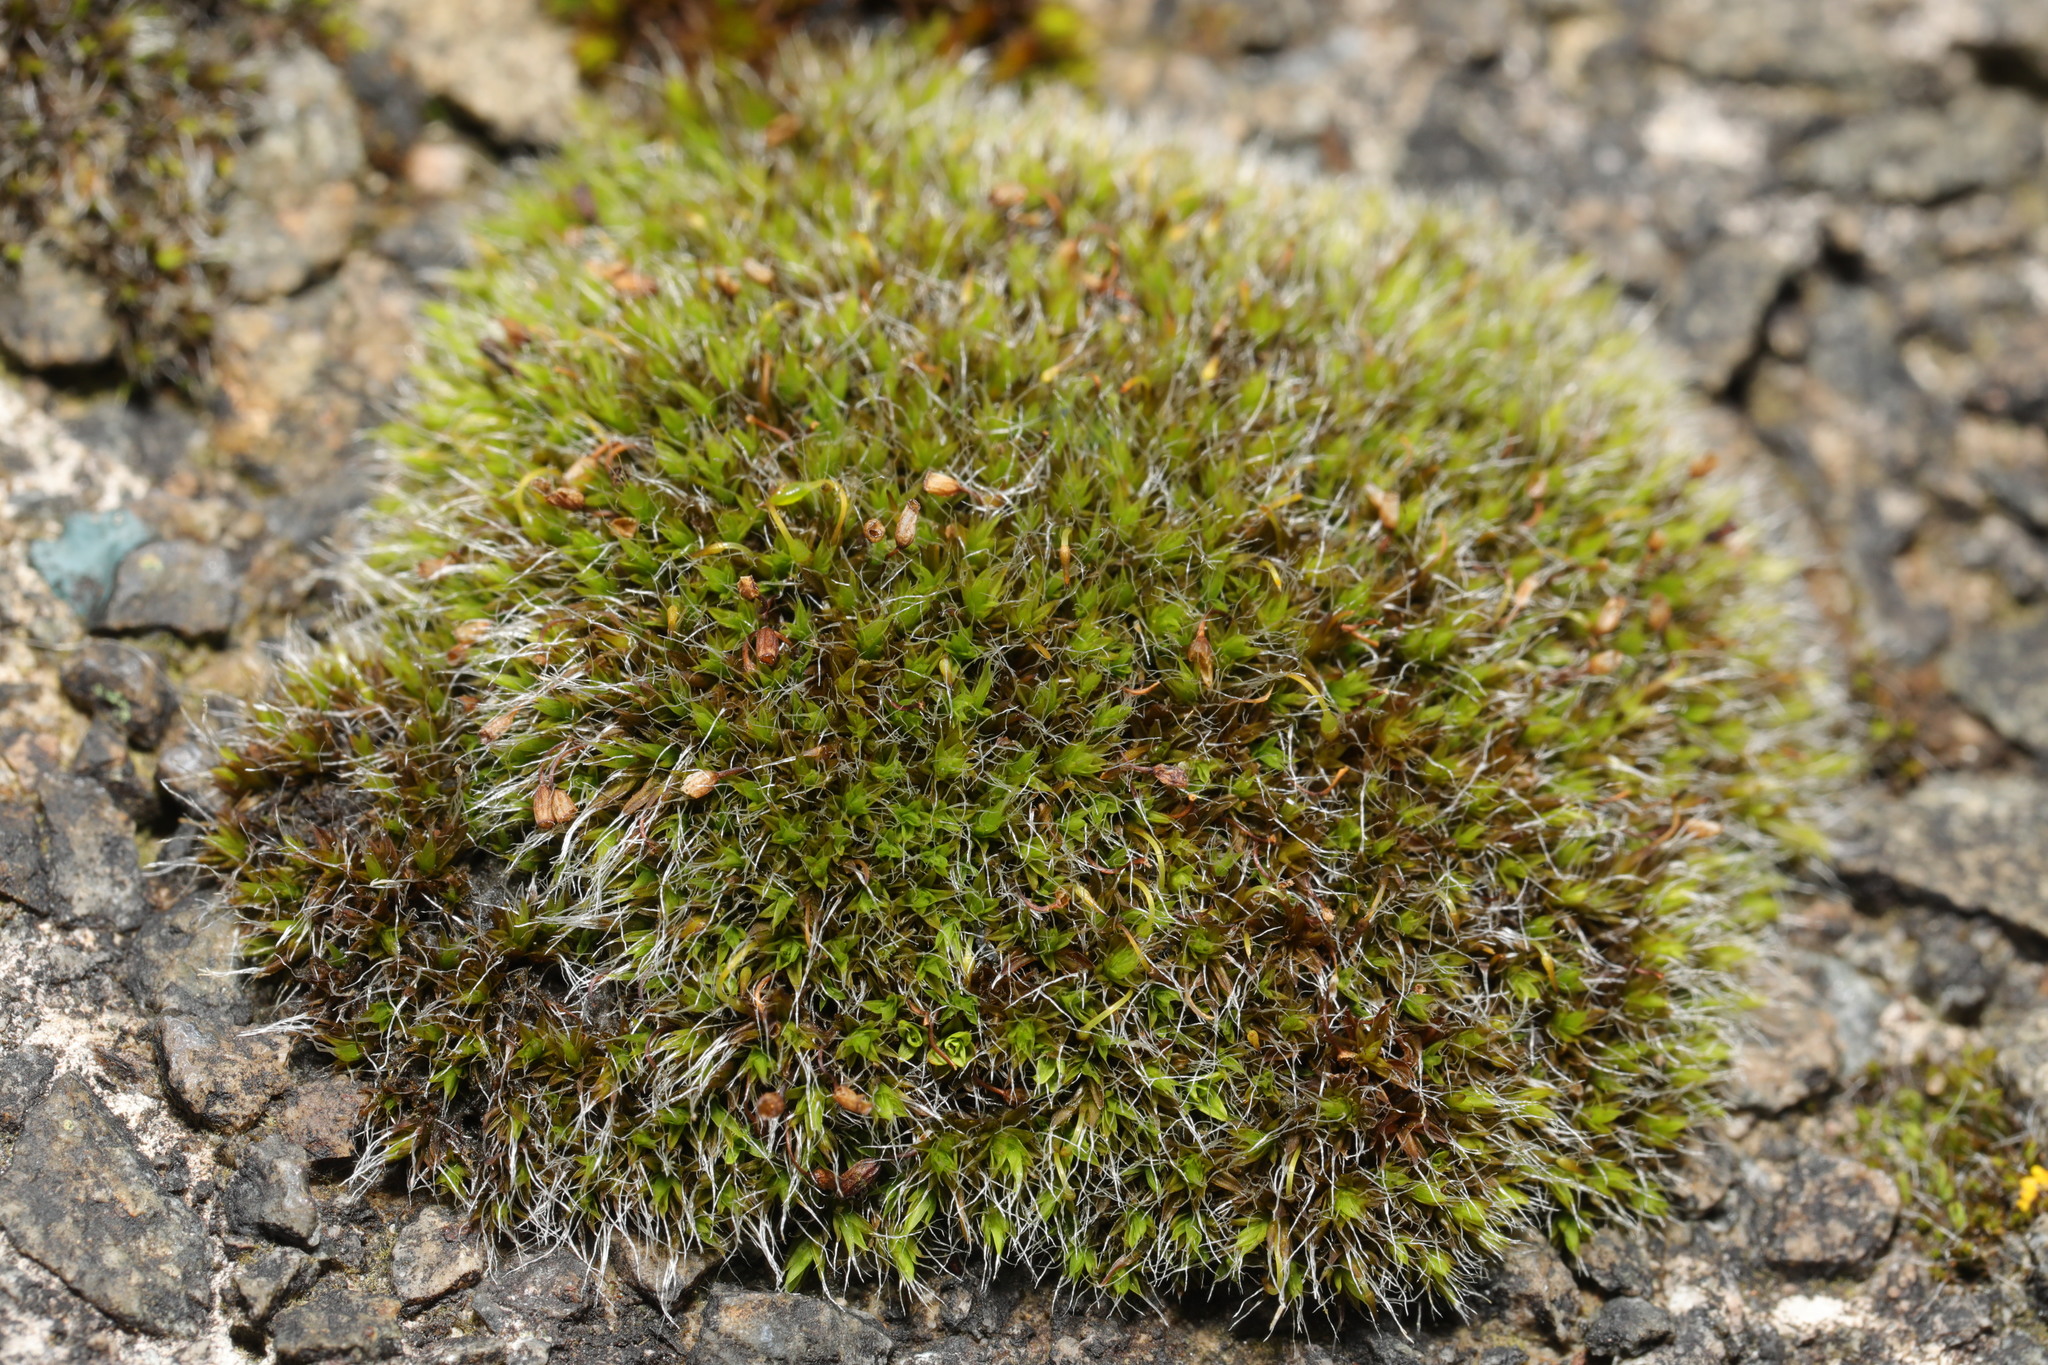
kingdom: Plantae
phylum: Bryophyta
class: Bryopsida
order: Grimmiales
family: Grimmiaceae
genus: Grimmia
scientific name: Grimmia pulvinata
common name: Grey-cushioned grimmia
